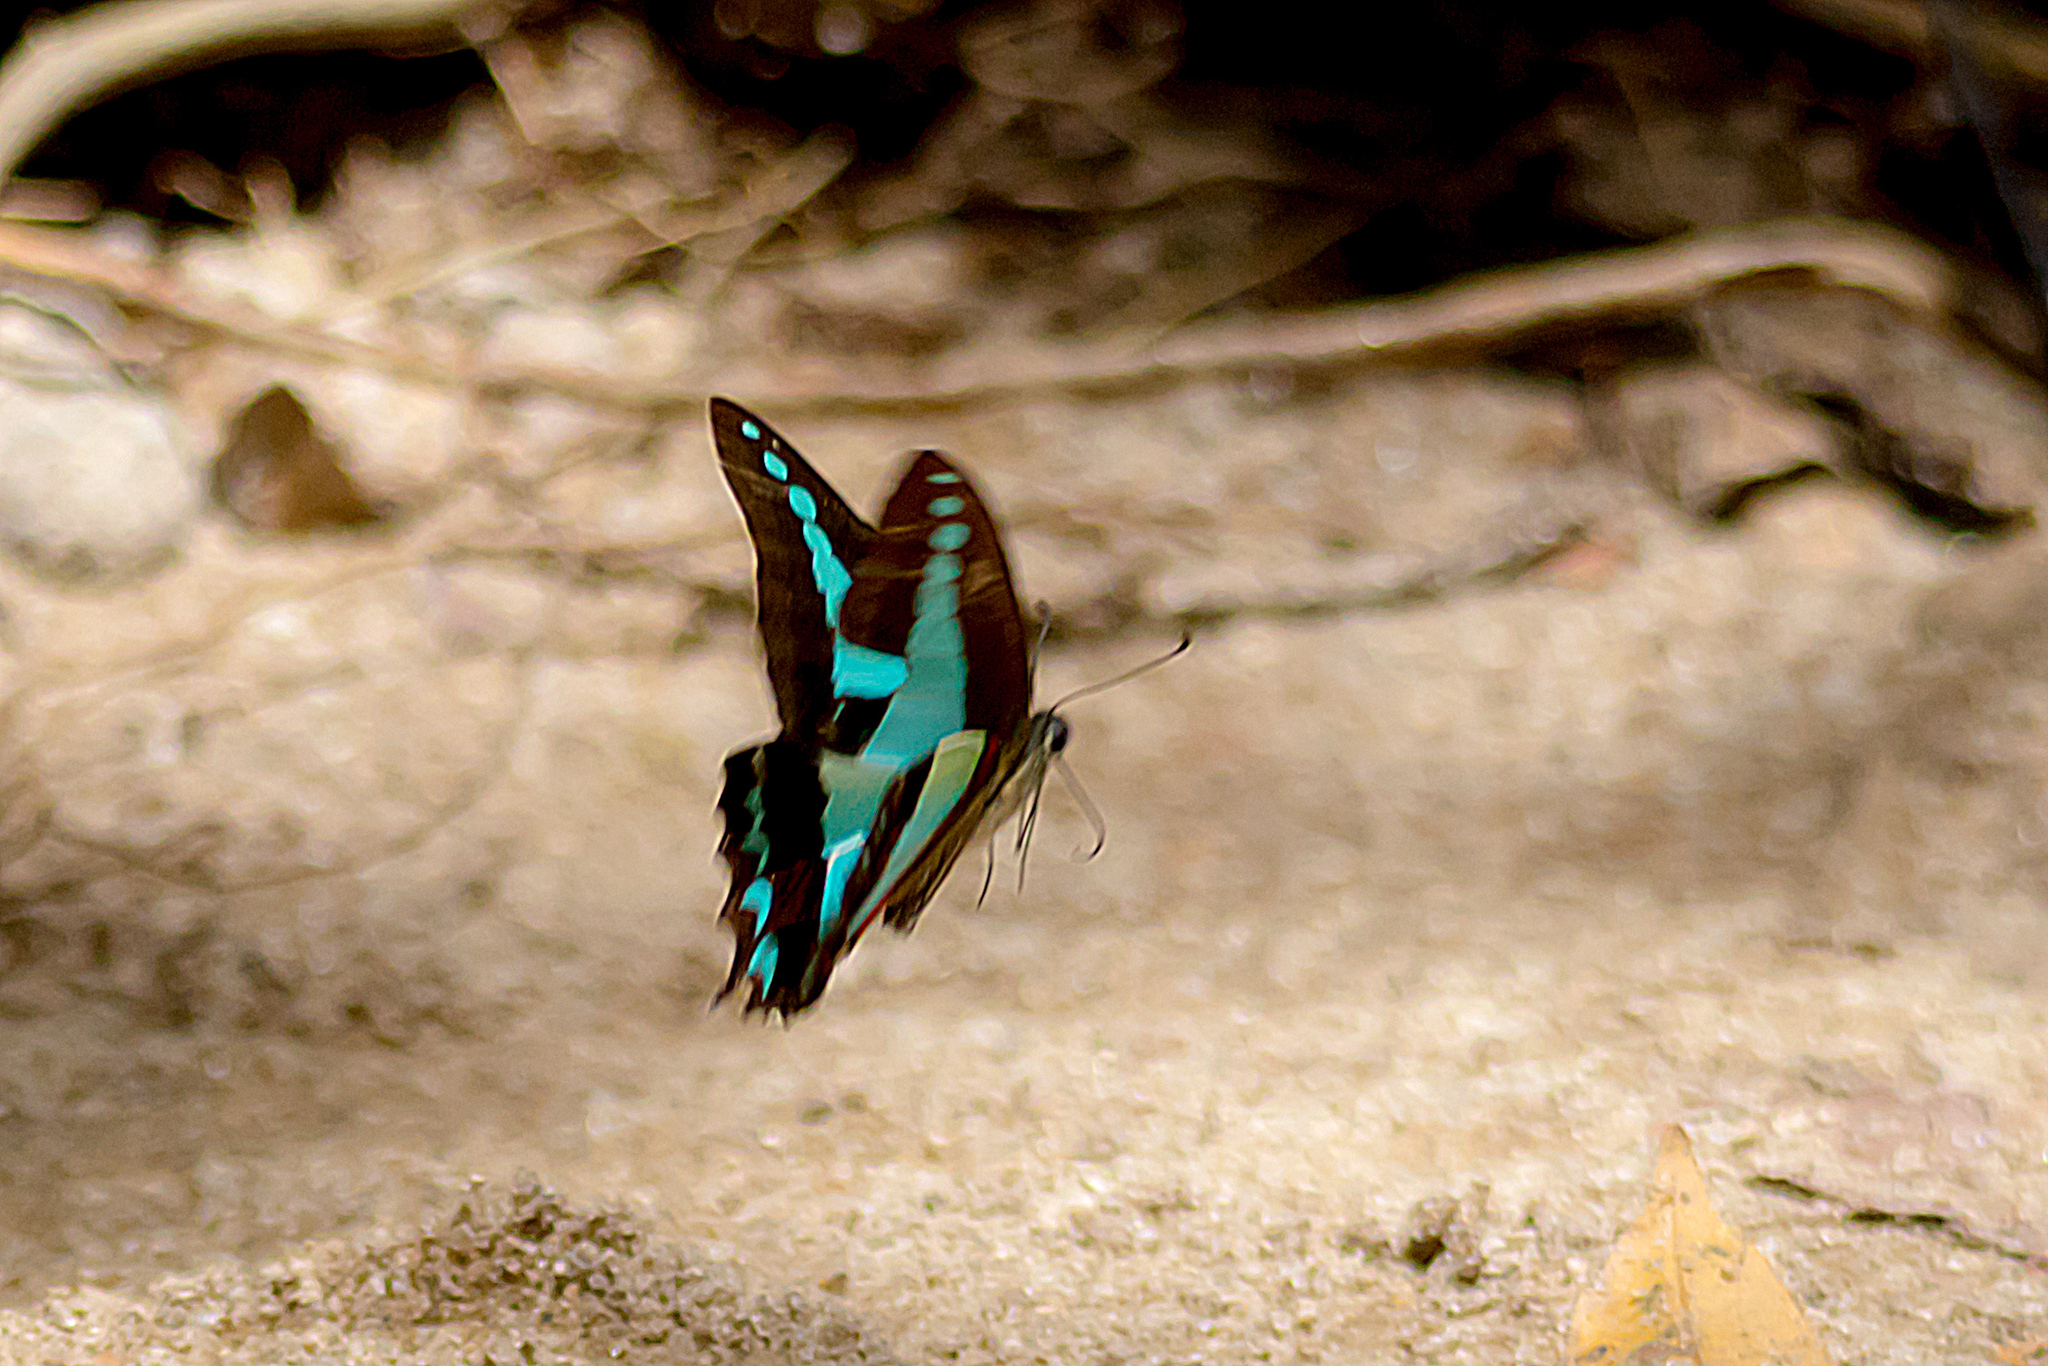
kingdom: Animalia
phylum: Arthropoda
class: Insecta
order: Lepidoptera
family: Papilionidae
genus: Graphium
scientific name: Graphium
